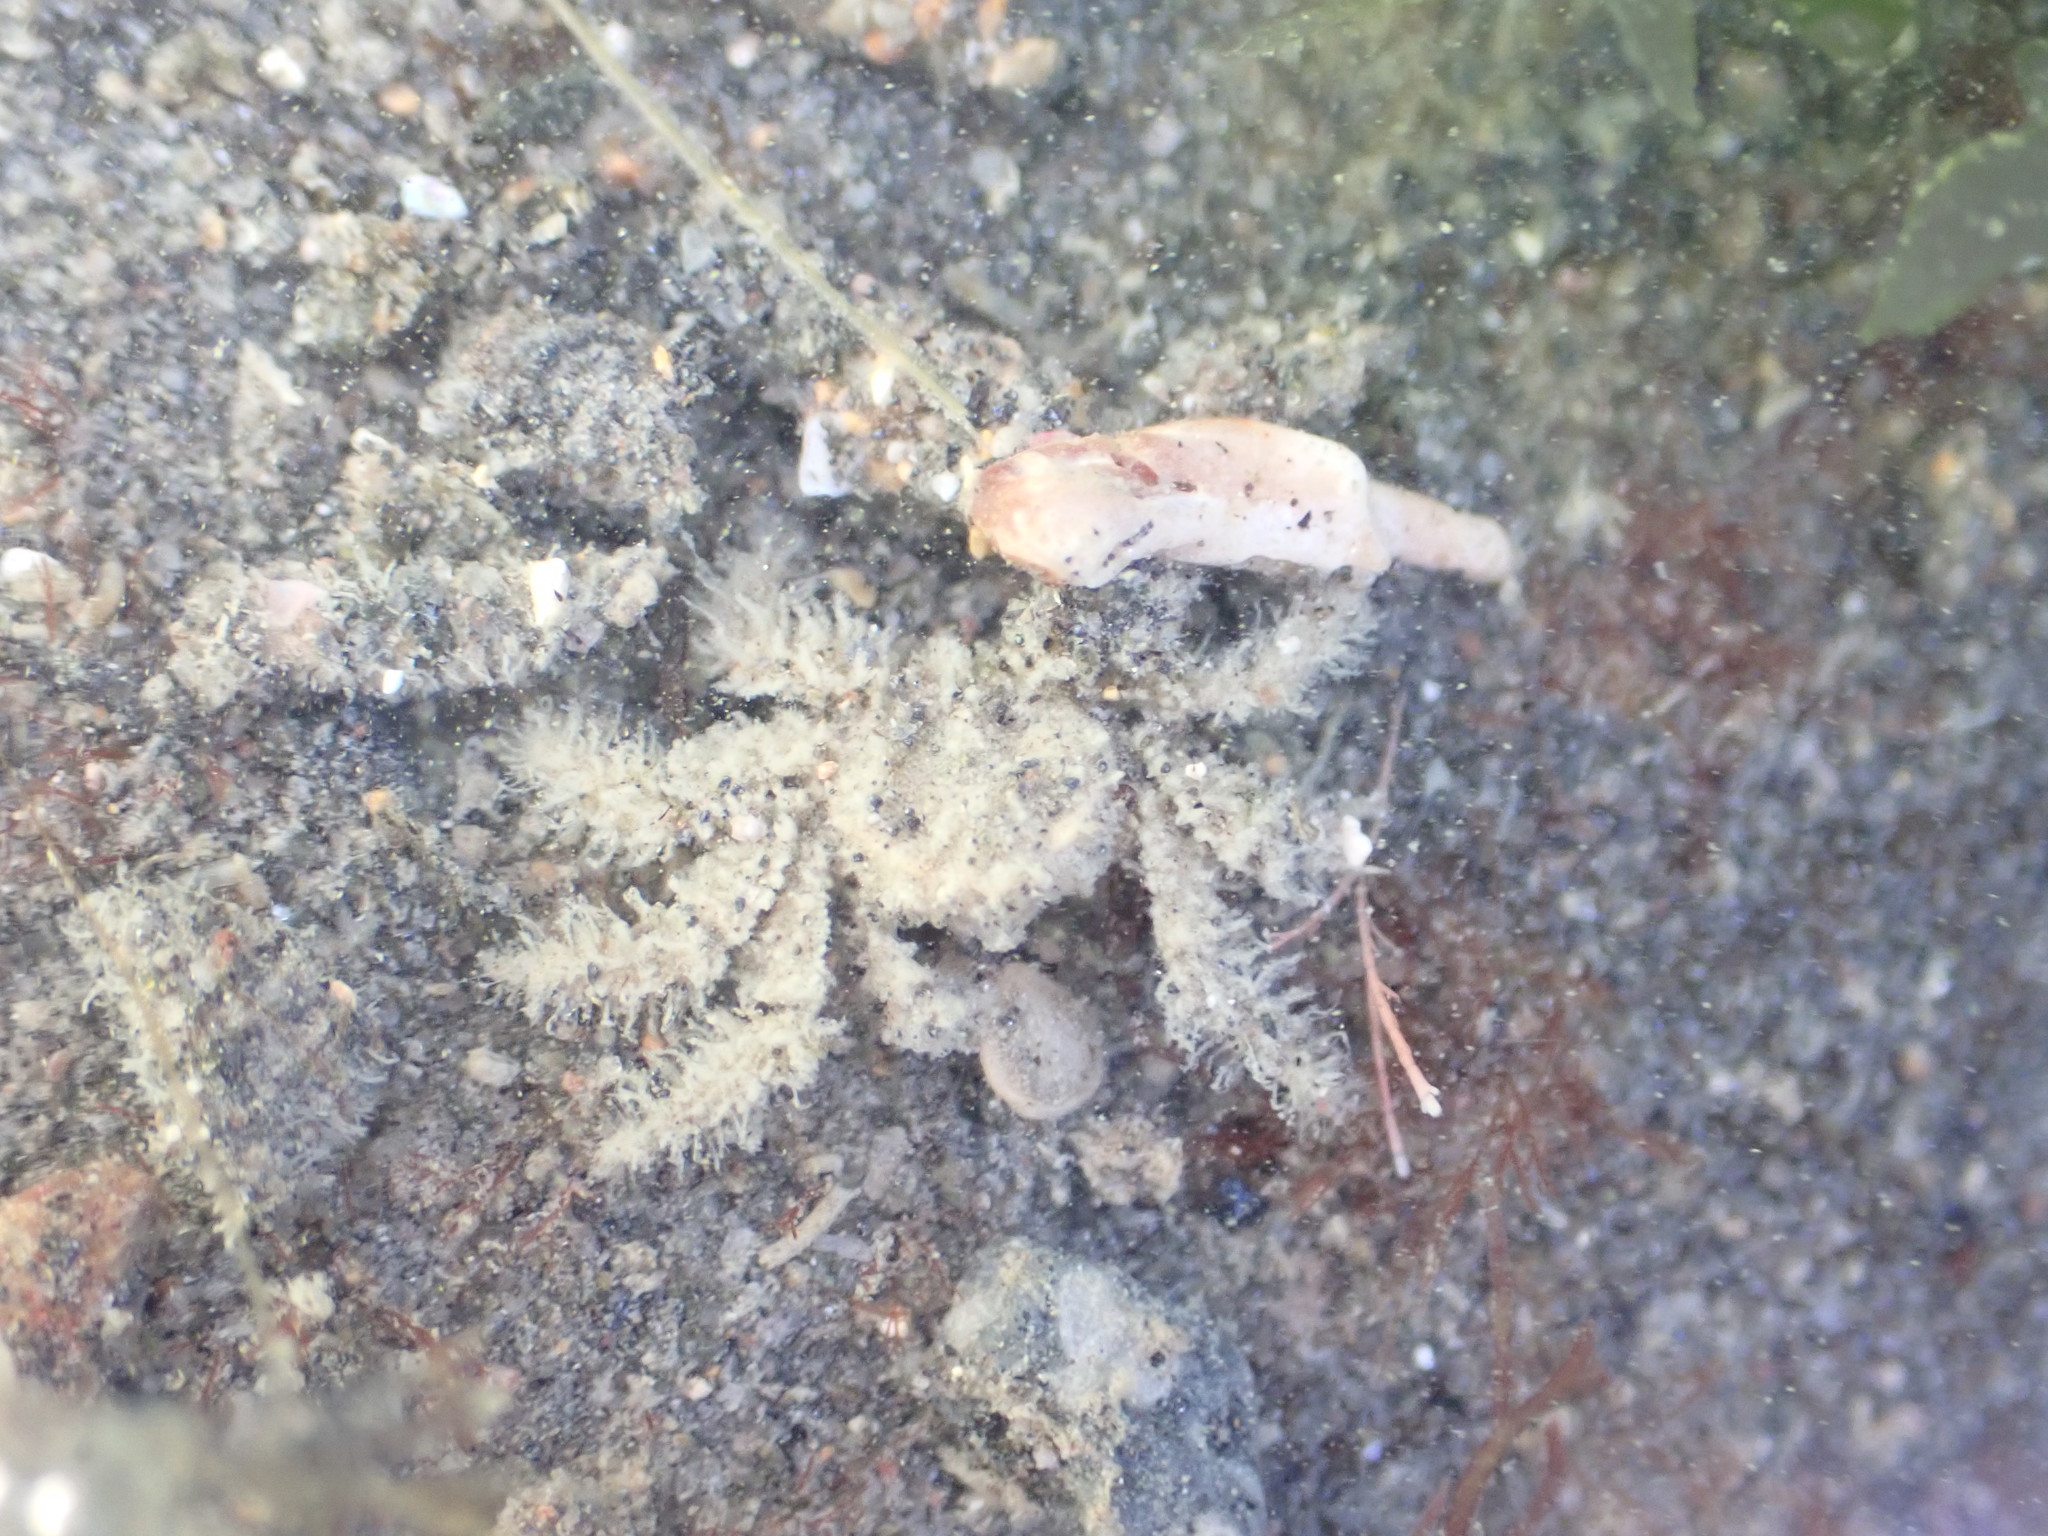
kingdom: Animalia
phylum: Arthropoda
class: Malacostraca
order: Decapoda
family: Hymenosomatidae
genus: Neohymenicus
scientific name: Neohymenicus pubescens
